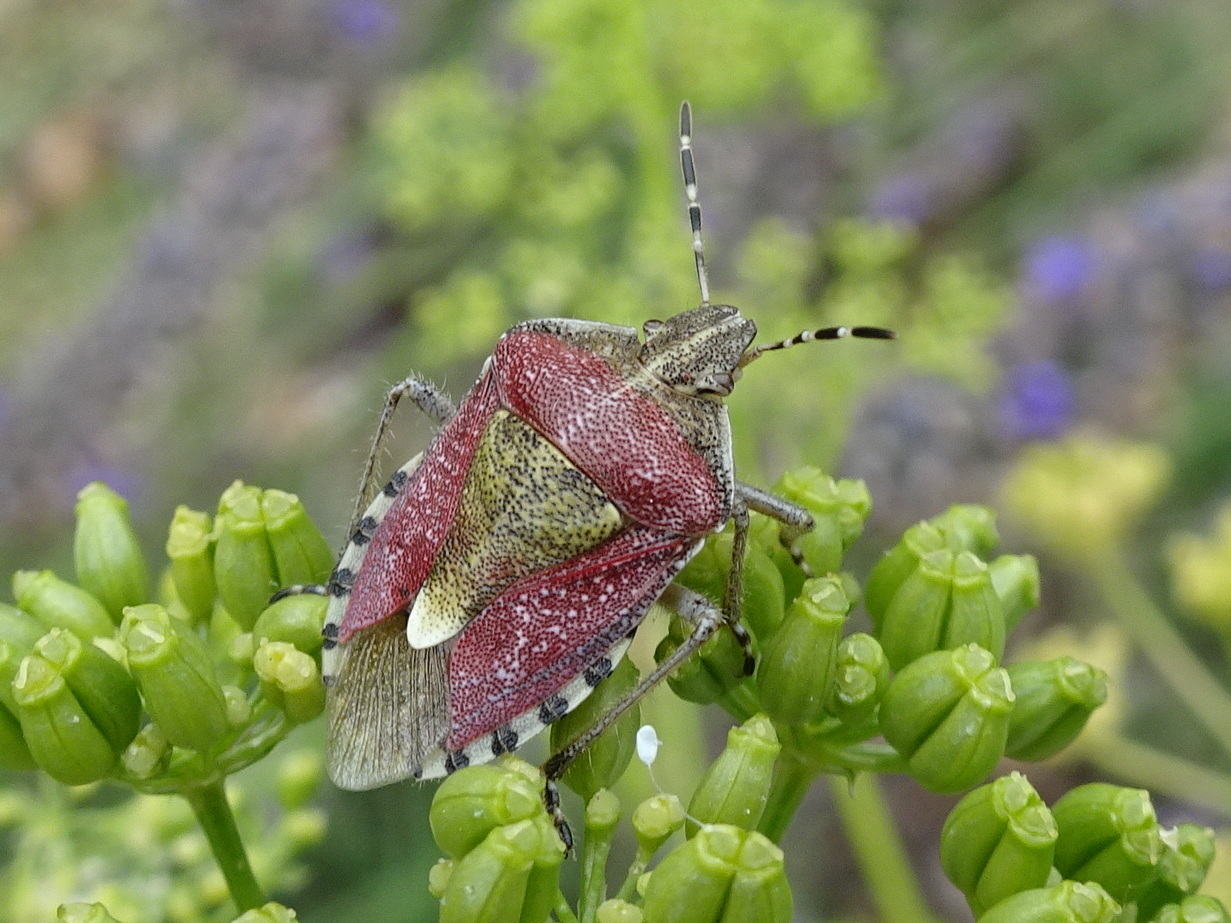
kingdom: Animalia
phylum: Arthropoda
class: Insecta
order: Hemiptera
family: Pentatomidae
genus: Dolycoris
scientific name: Dolycoris baccarum
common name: Sloe bug
